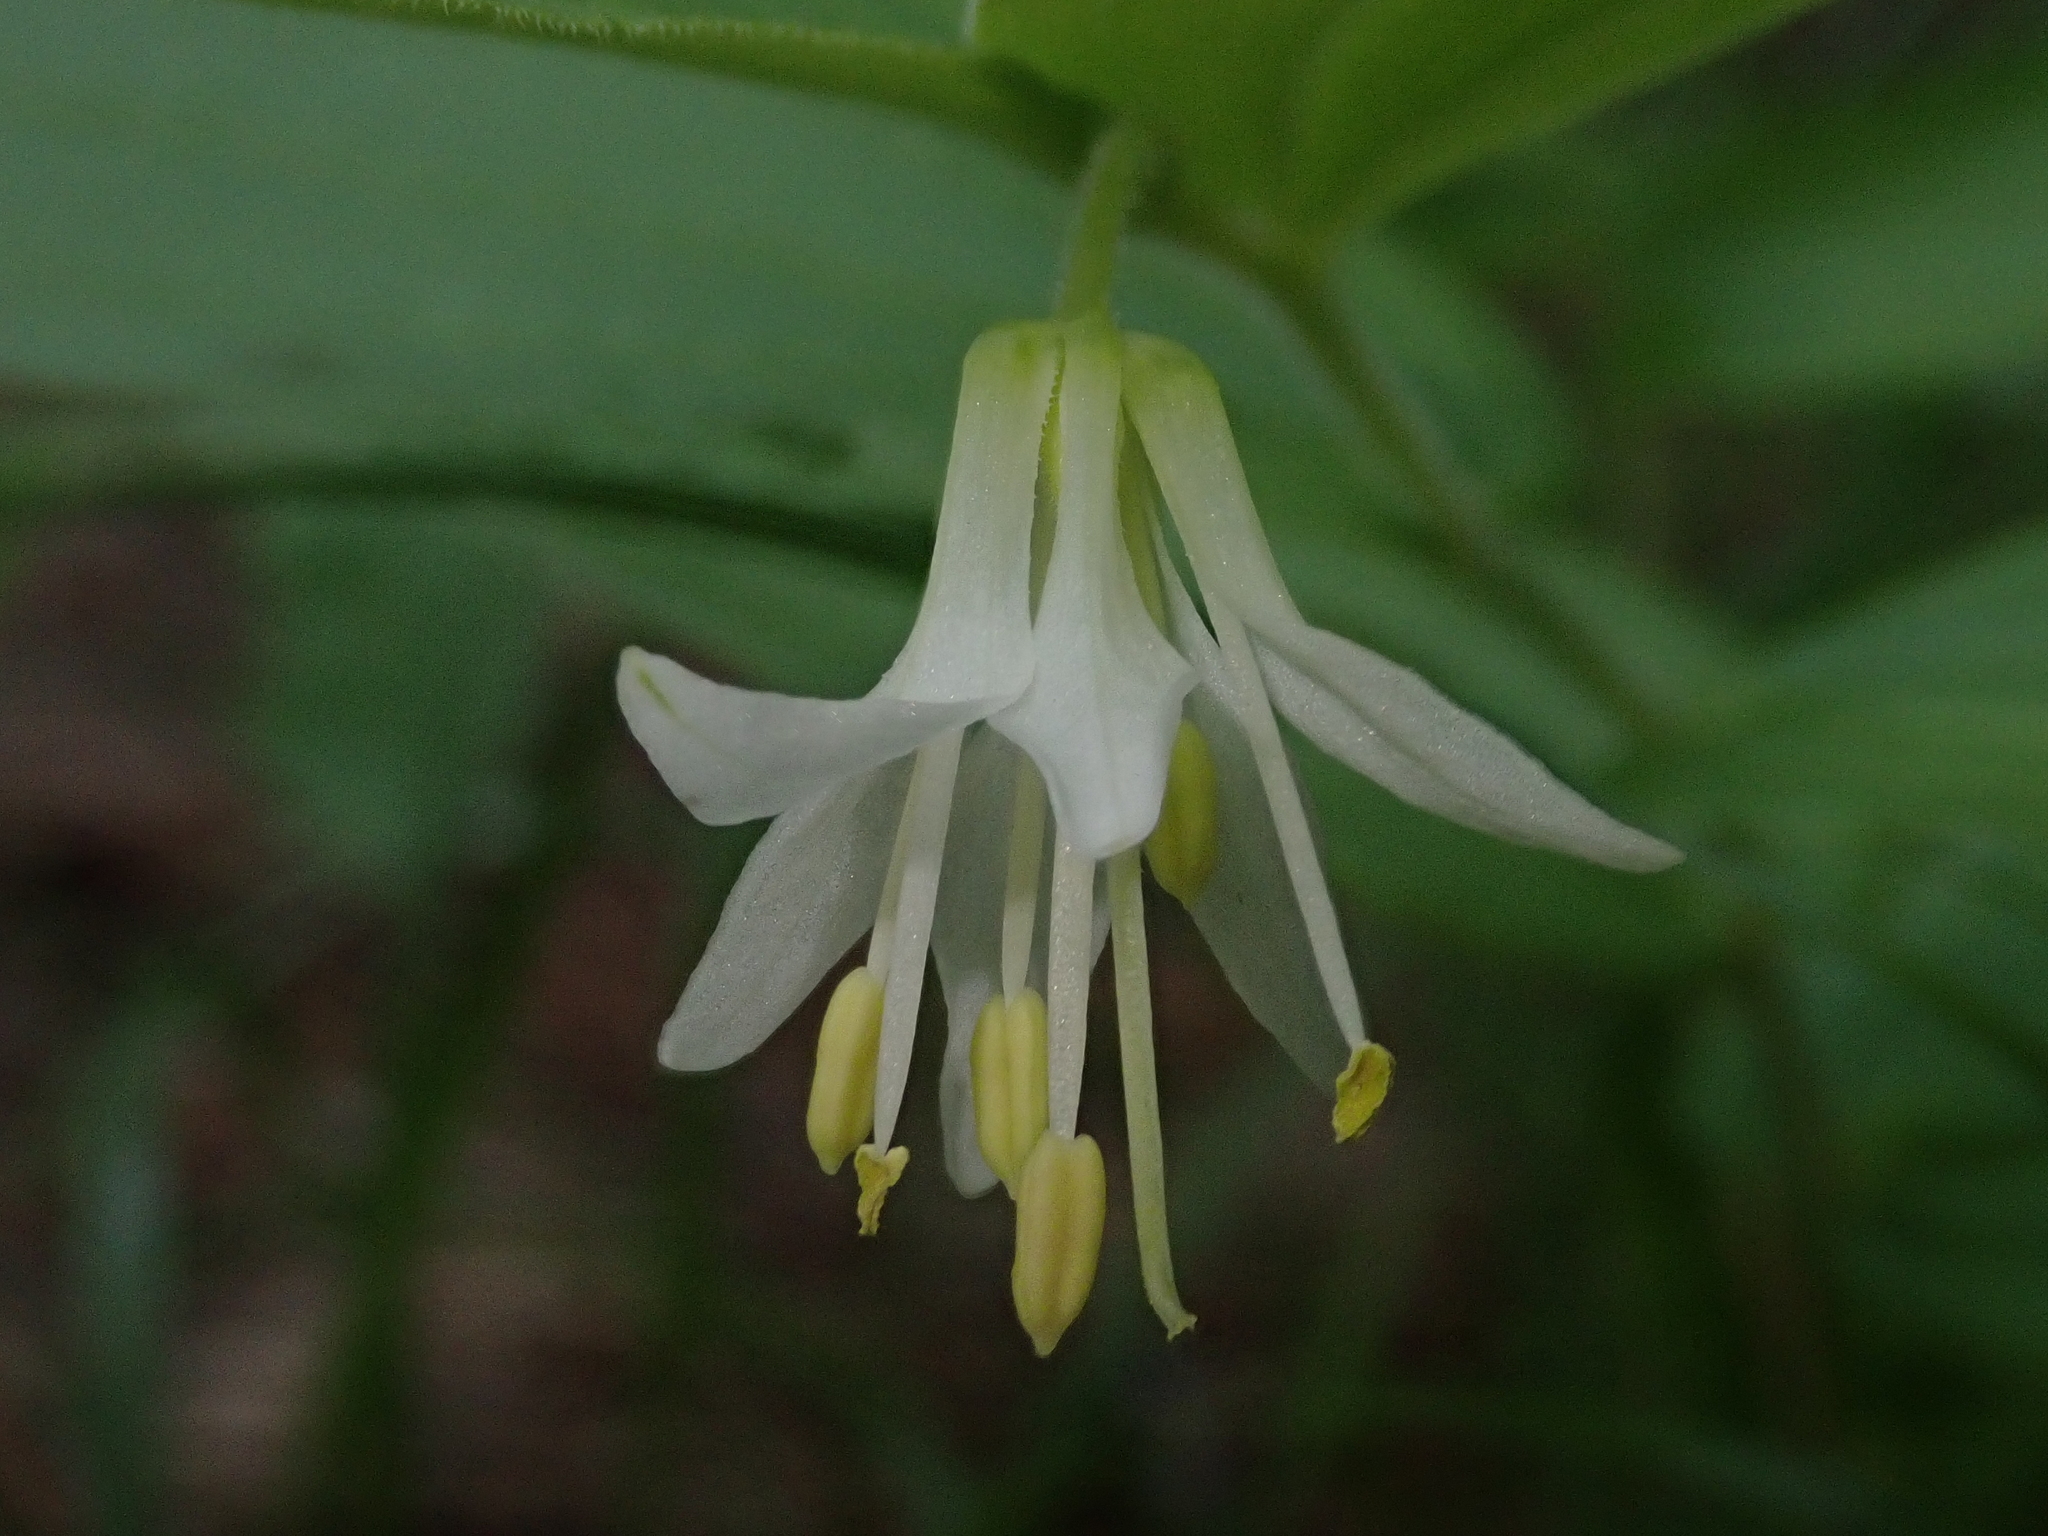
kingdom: Plantae
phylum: Tracheophyta
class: Liliopsida
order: Liliales
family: Liliaceae
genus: Prosartes
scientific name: Prosartes hookeri
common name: Fairy-bells
